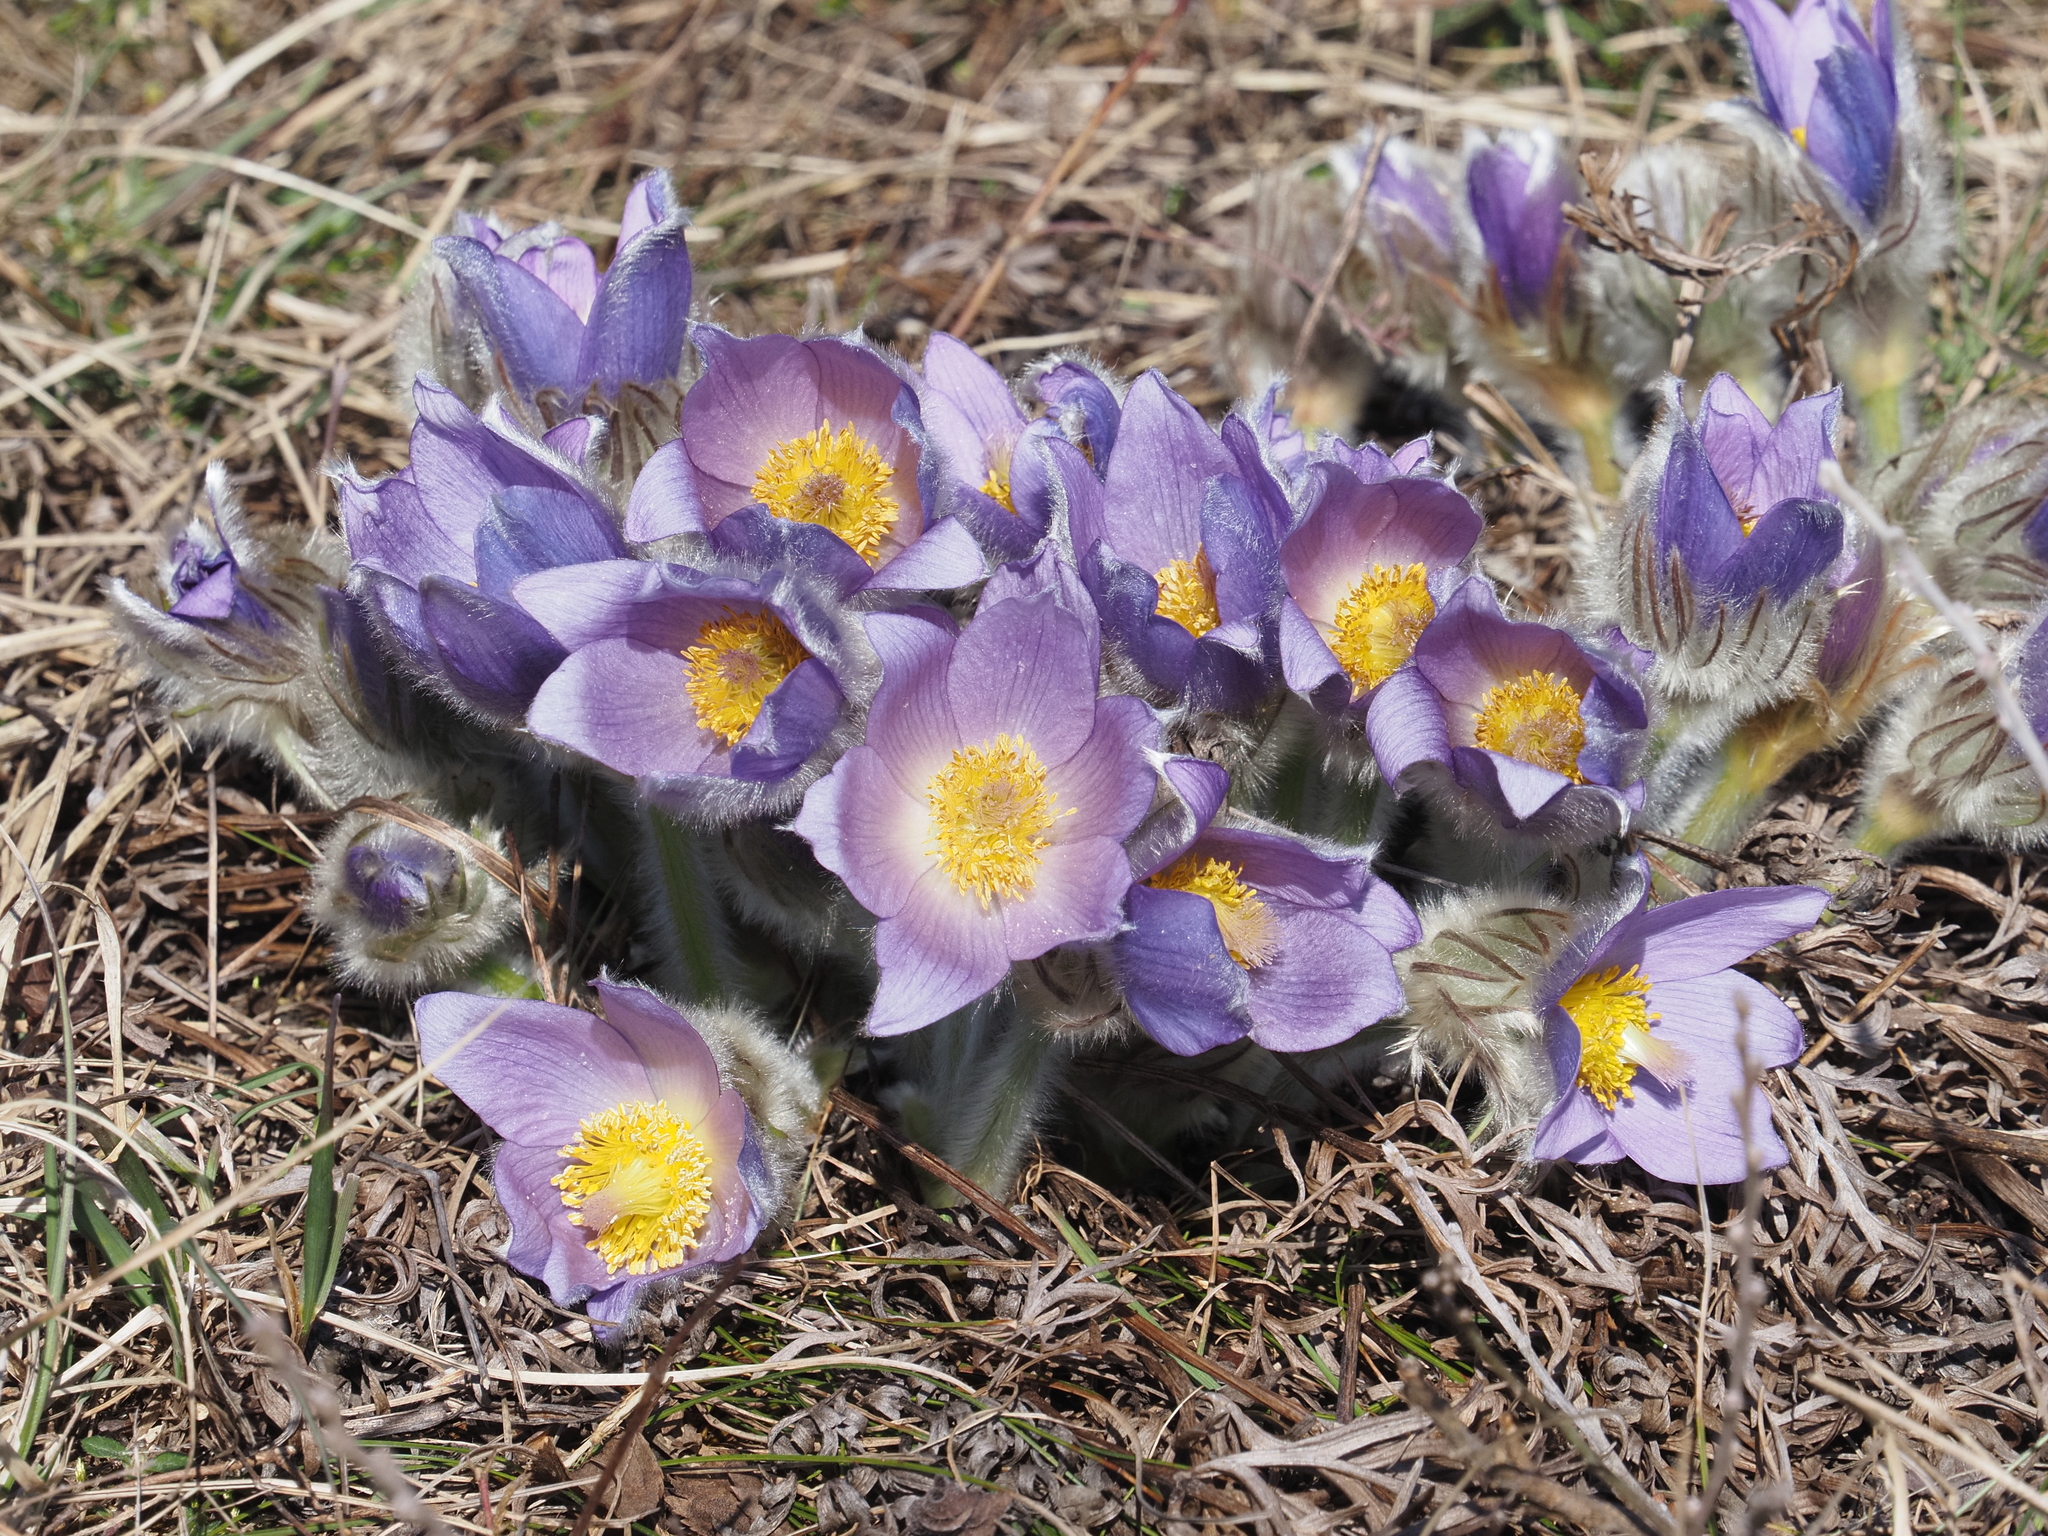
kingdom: Plantae
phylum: Tracheophyta
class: Magnoliopsida
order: Ranunculales
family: Ranunculaceae
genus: Pulsatilla
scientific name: Pulsatilla grandis
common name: Greater pasque flower
